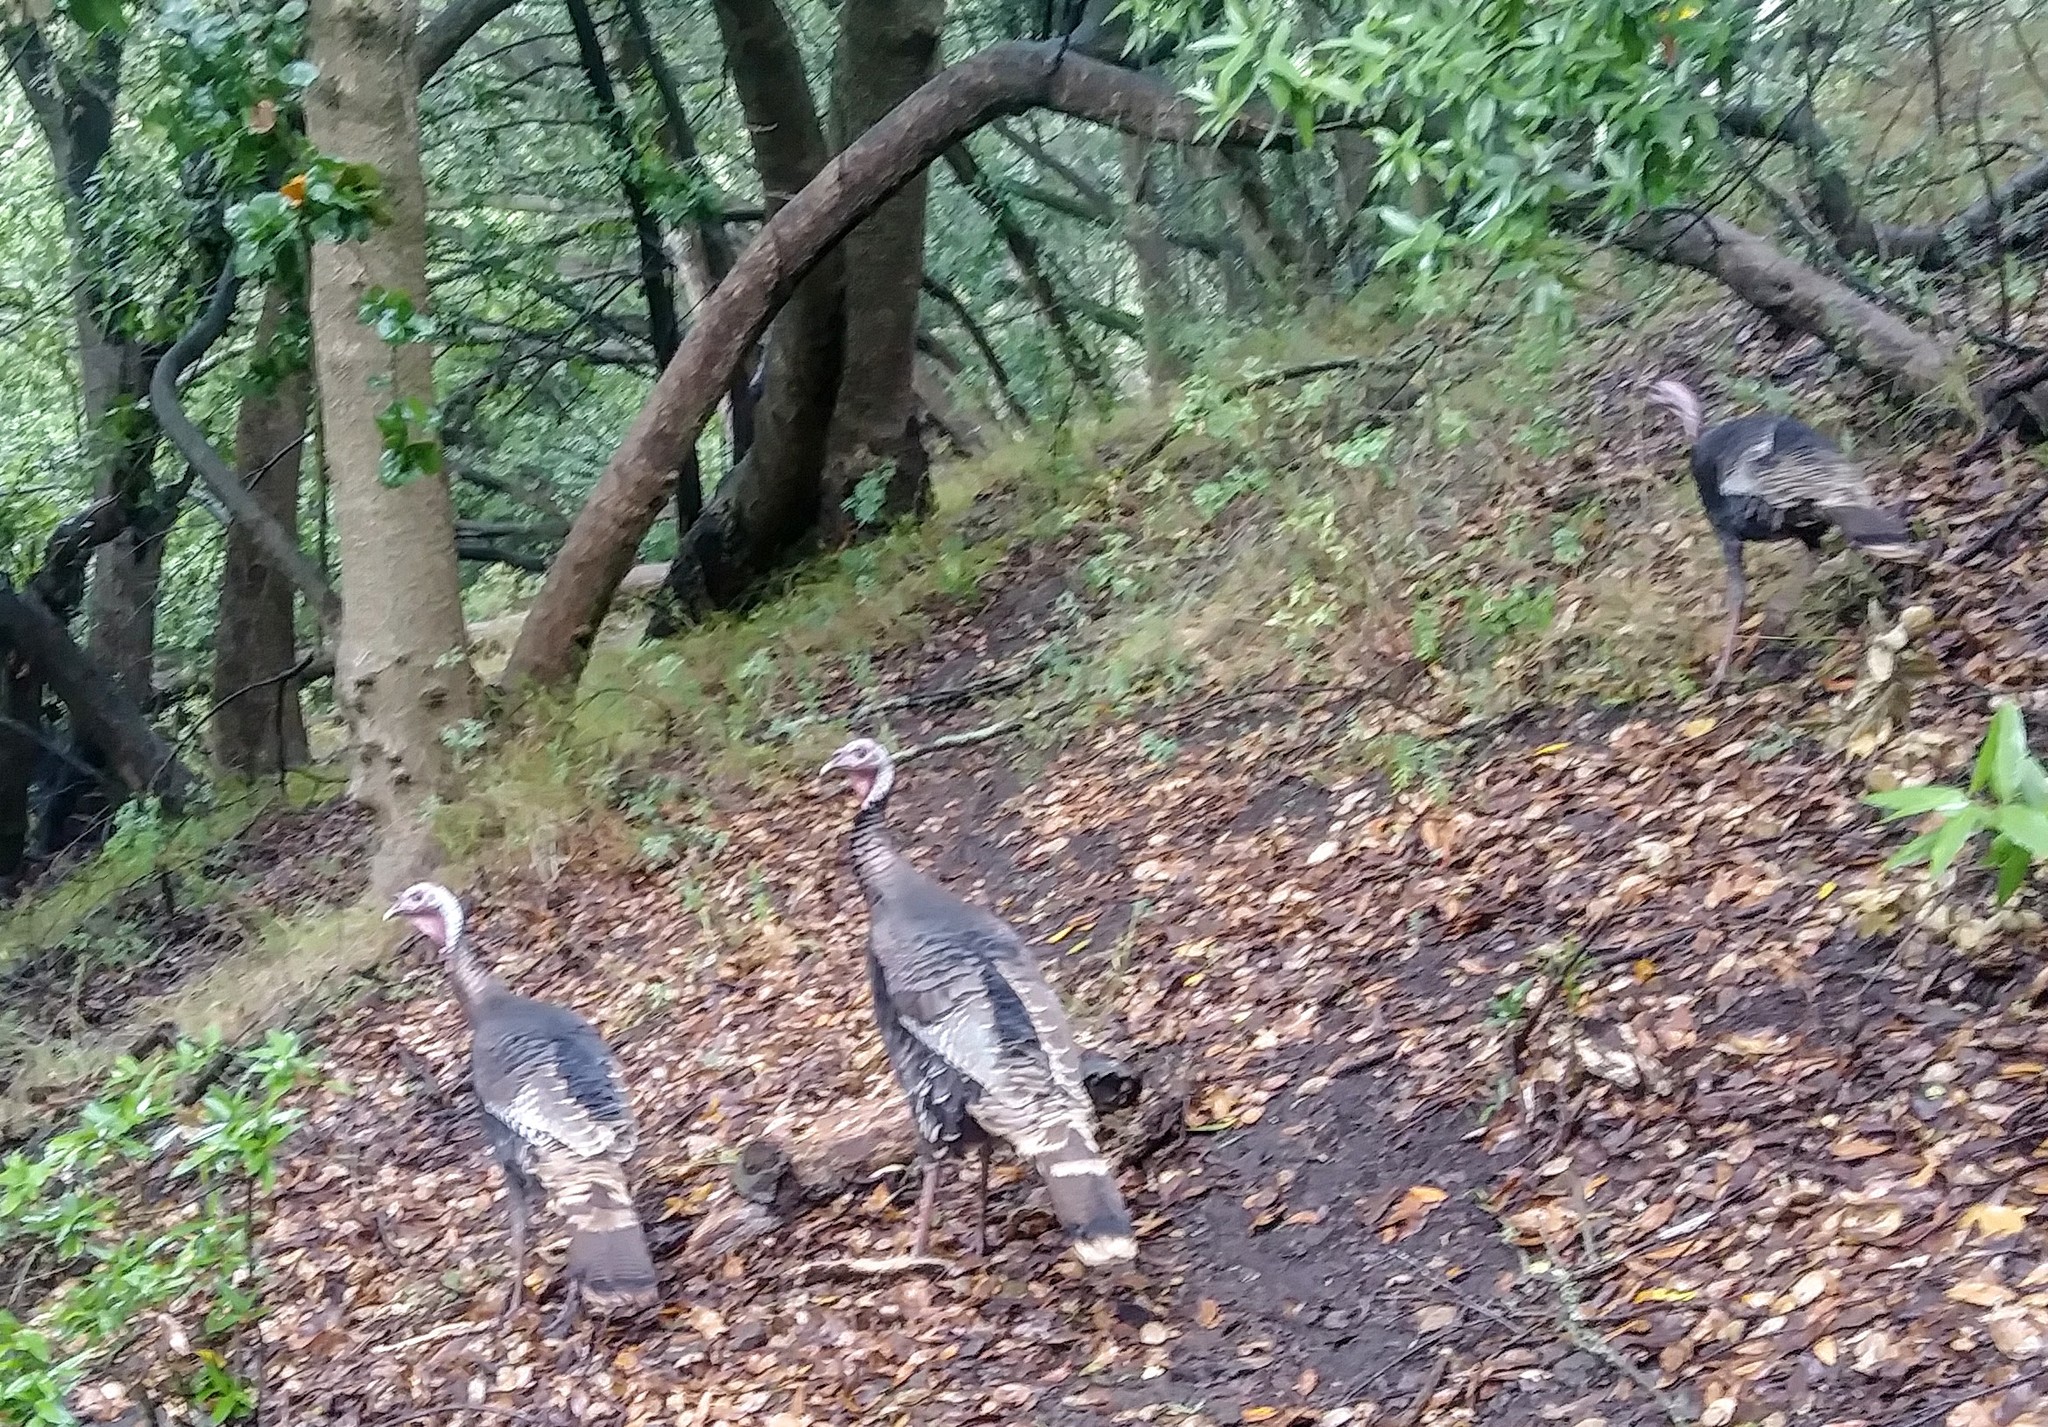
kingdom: Animalia
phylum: Chordata
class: Aves
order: Galliformes
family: Phasianidae
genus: Meleagris
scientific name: Meleagris gallopavo
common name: Wild turkey
